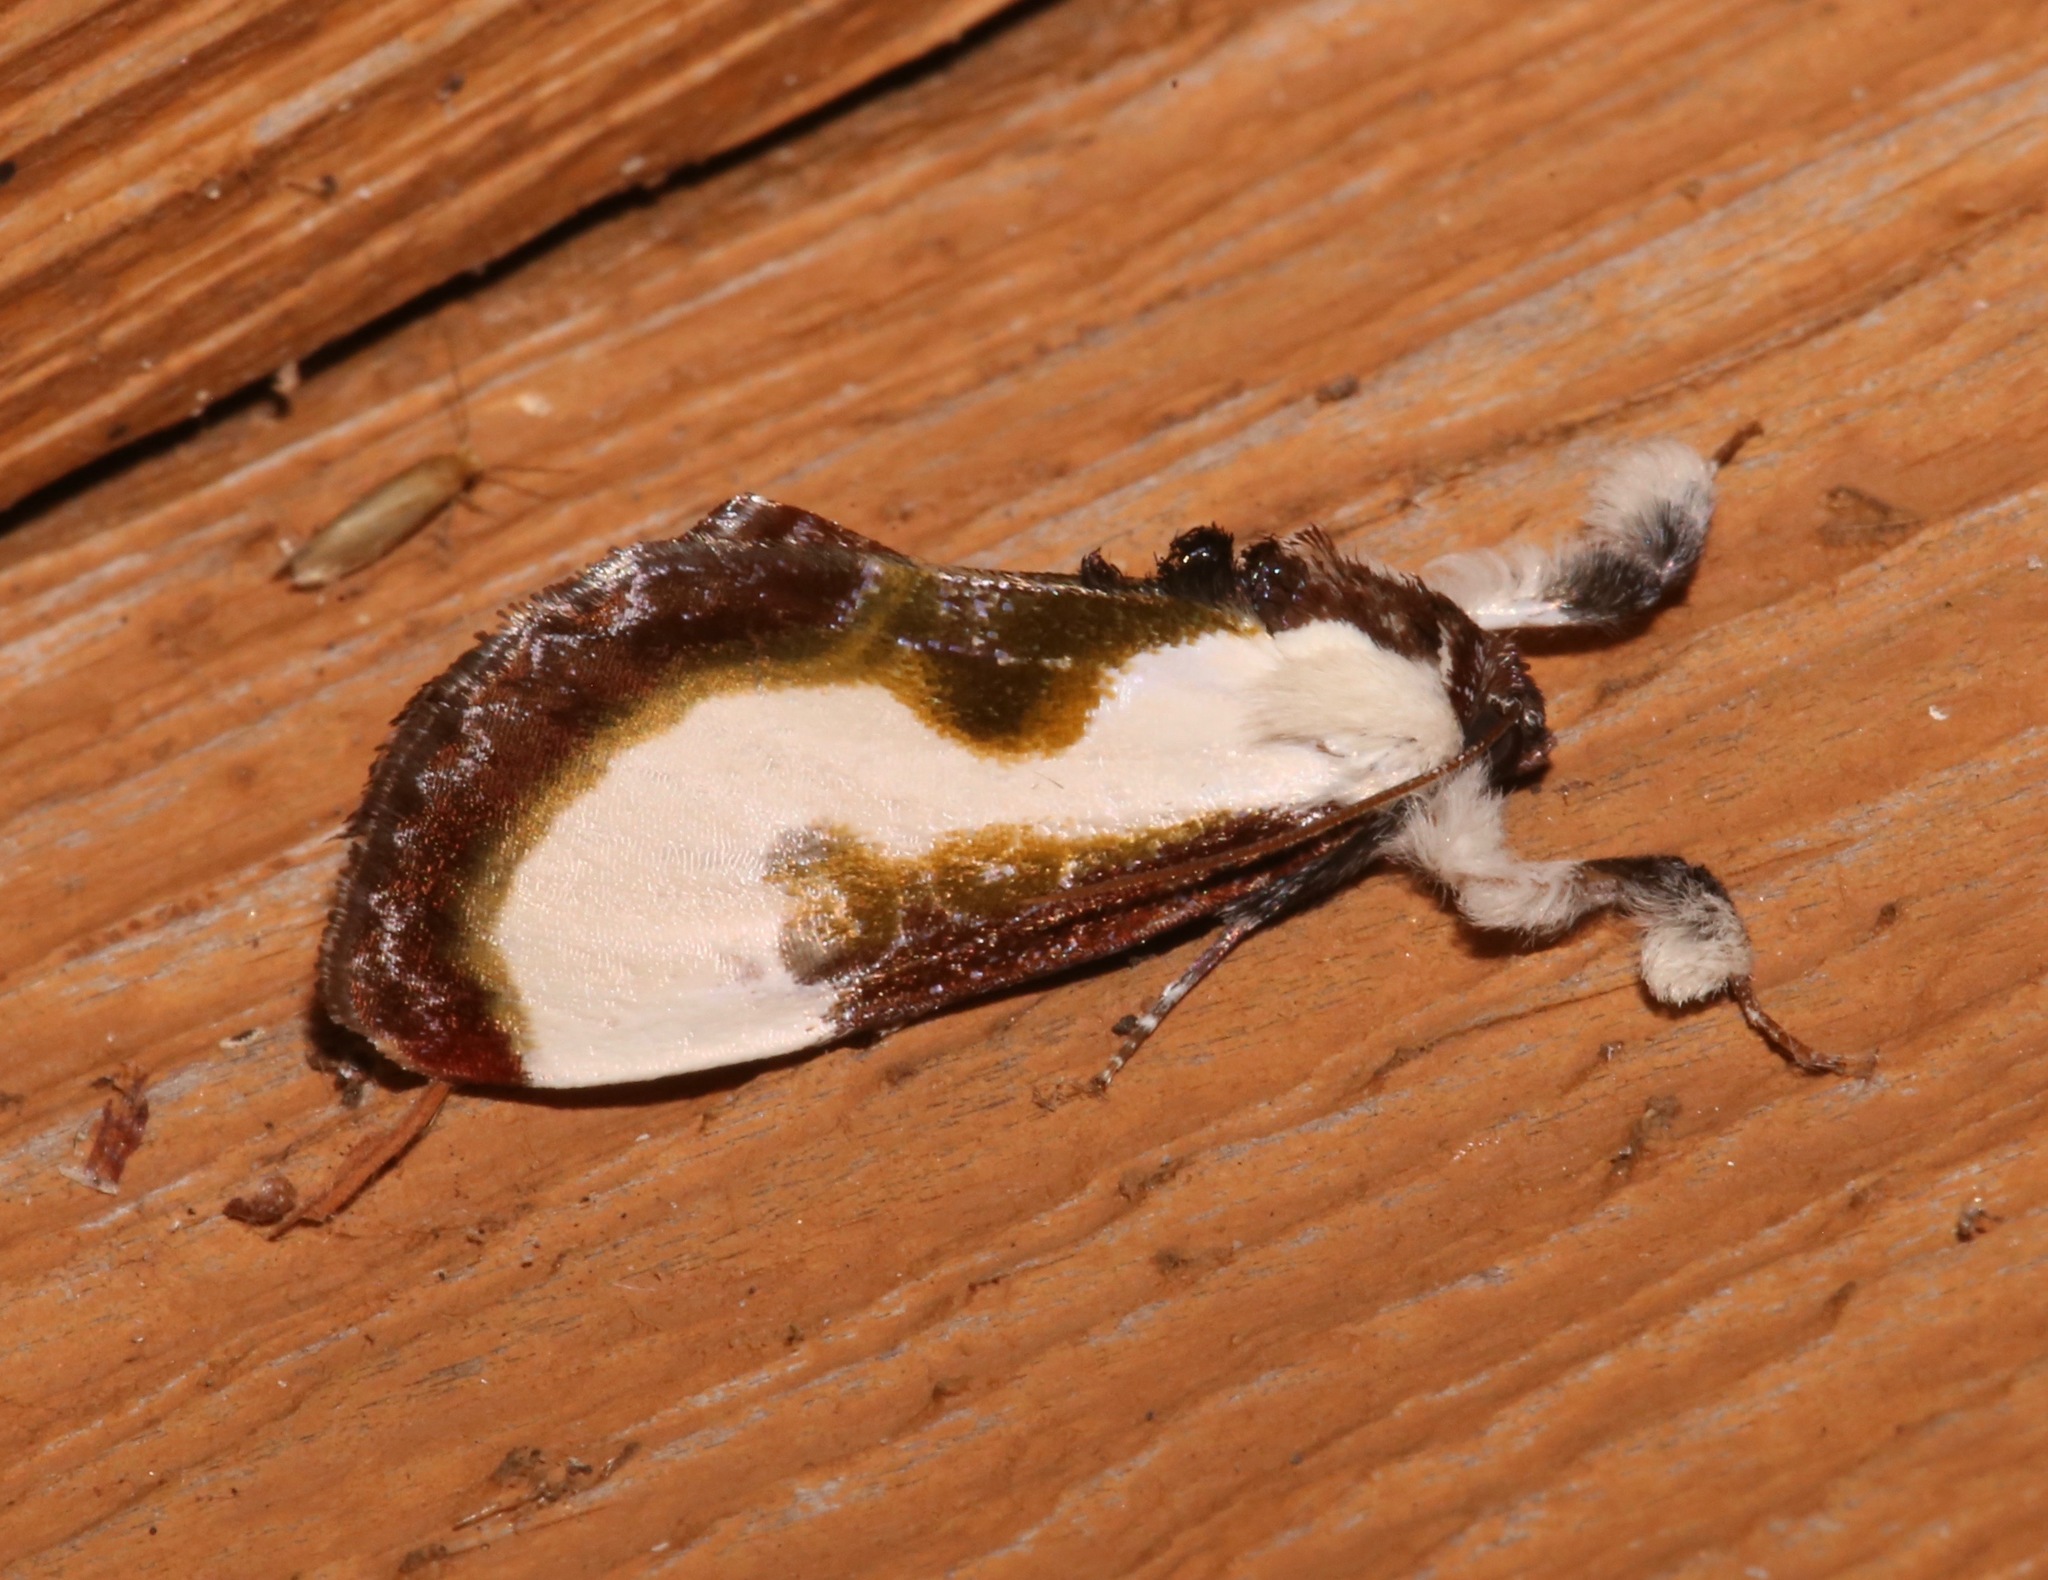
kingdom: Animalia
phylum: Arthropoda
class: Insecta
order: Lepidoptera
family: Noctuidae
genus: Eudryas
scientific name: Eudryas grata
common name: Beautiful wood-nymph
